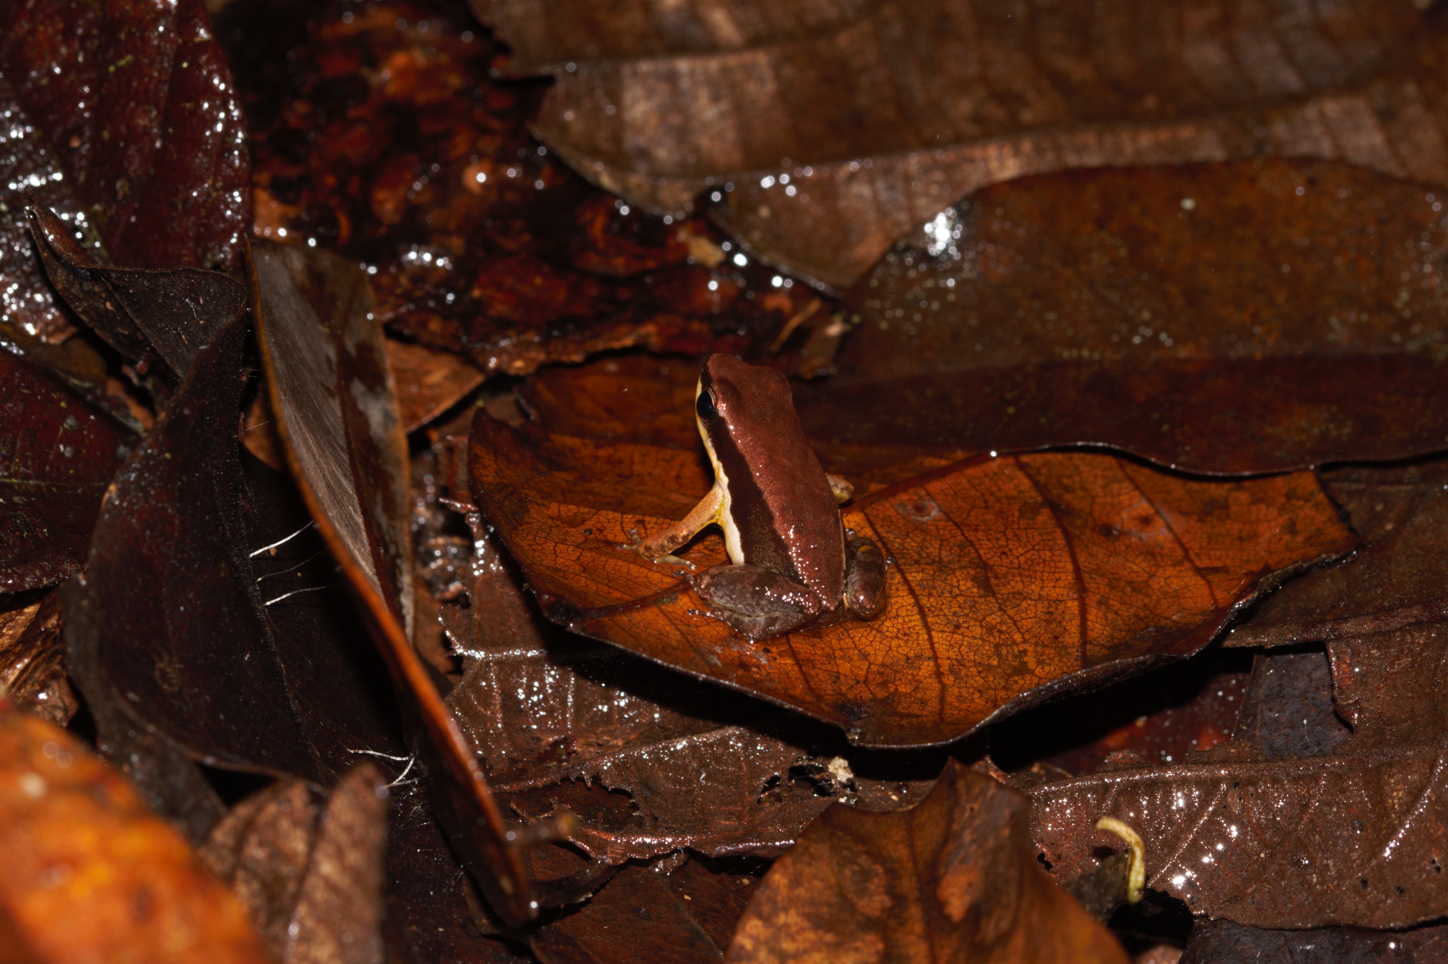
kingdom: Animalia
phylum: Chordata
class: Amphibia
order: Anura
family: Aromobatidae
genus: Allobates
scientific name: Allobates granti
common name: Black-flanked poison frog
